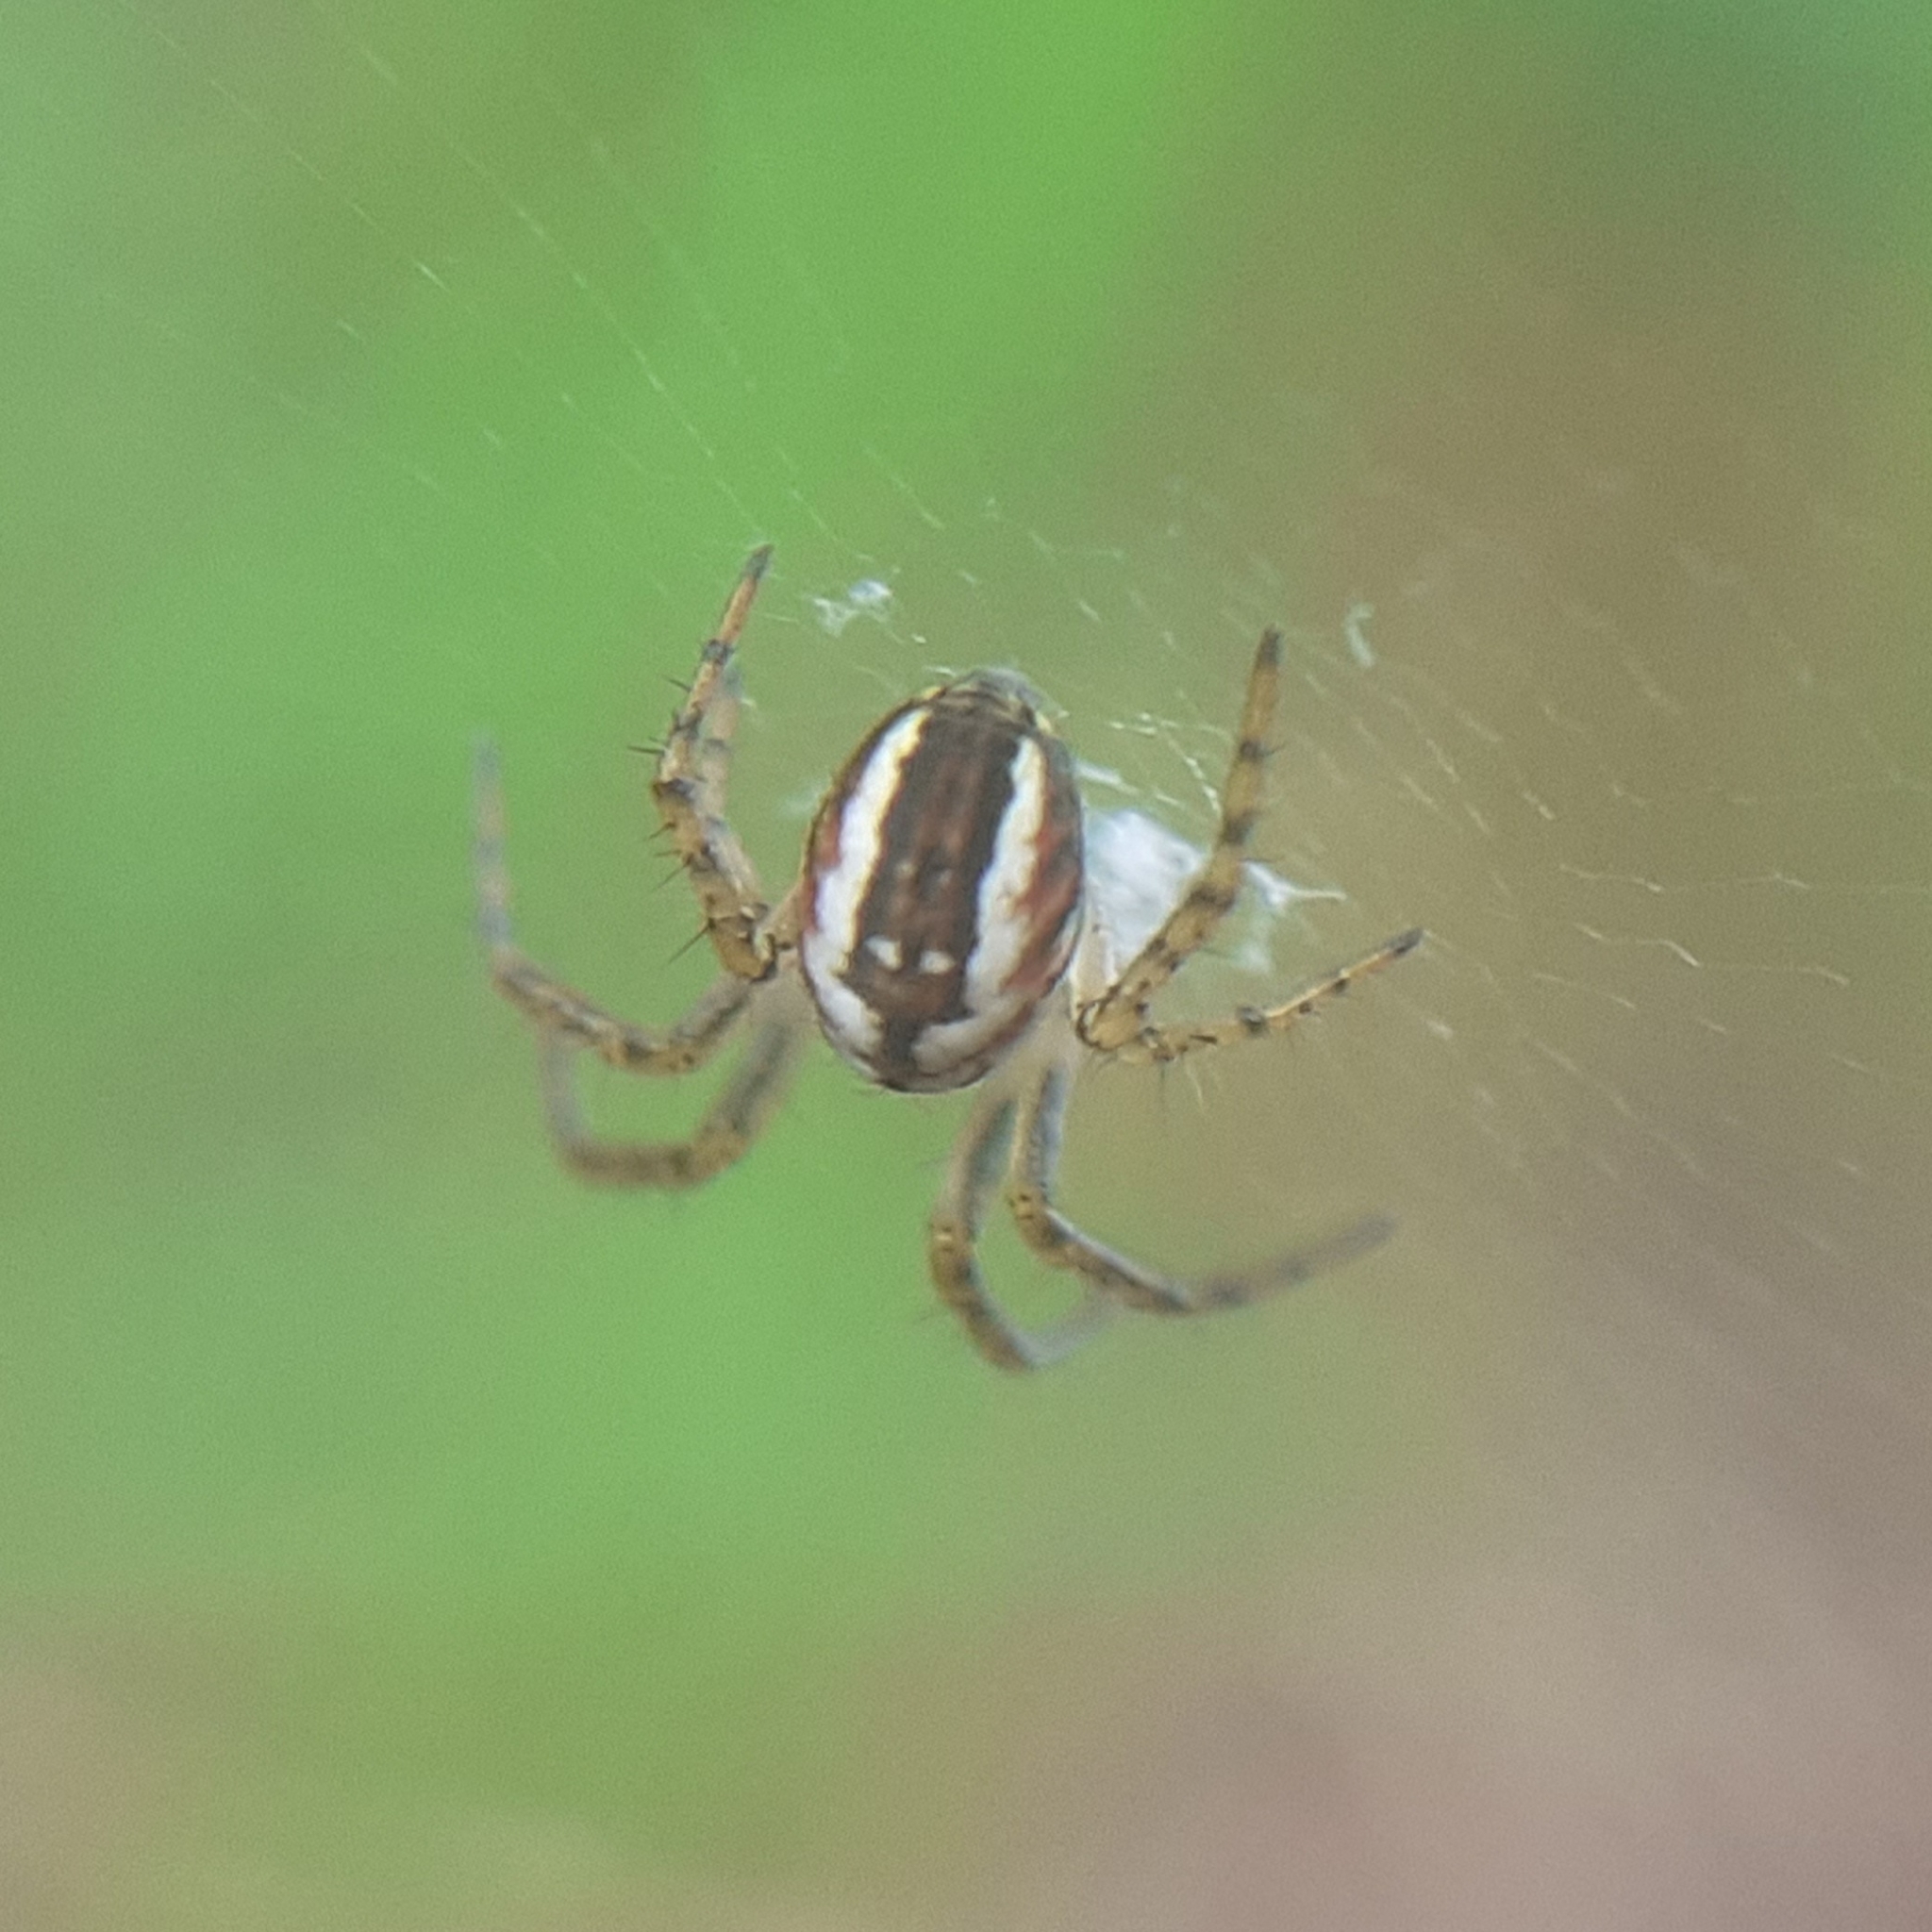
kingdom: Animalia
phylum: Arthropoda
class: Arachnida
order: Araneae
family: Araneidae
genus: Mangora
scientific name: Mangora acalypha
